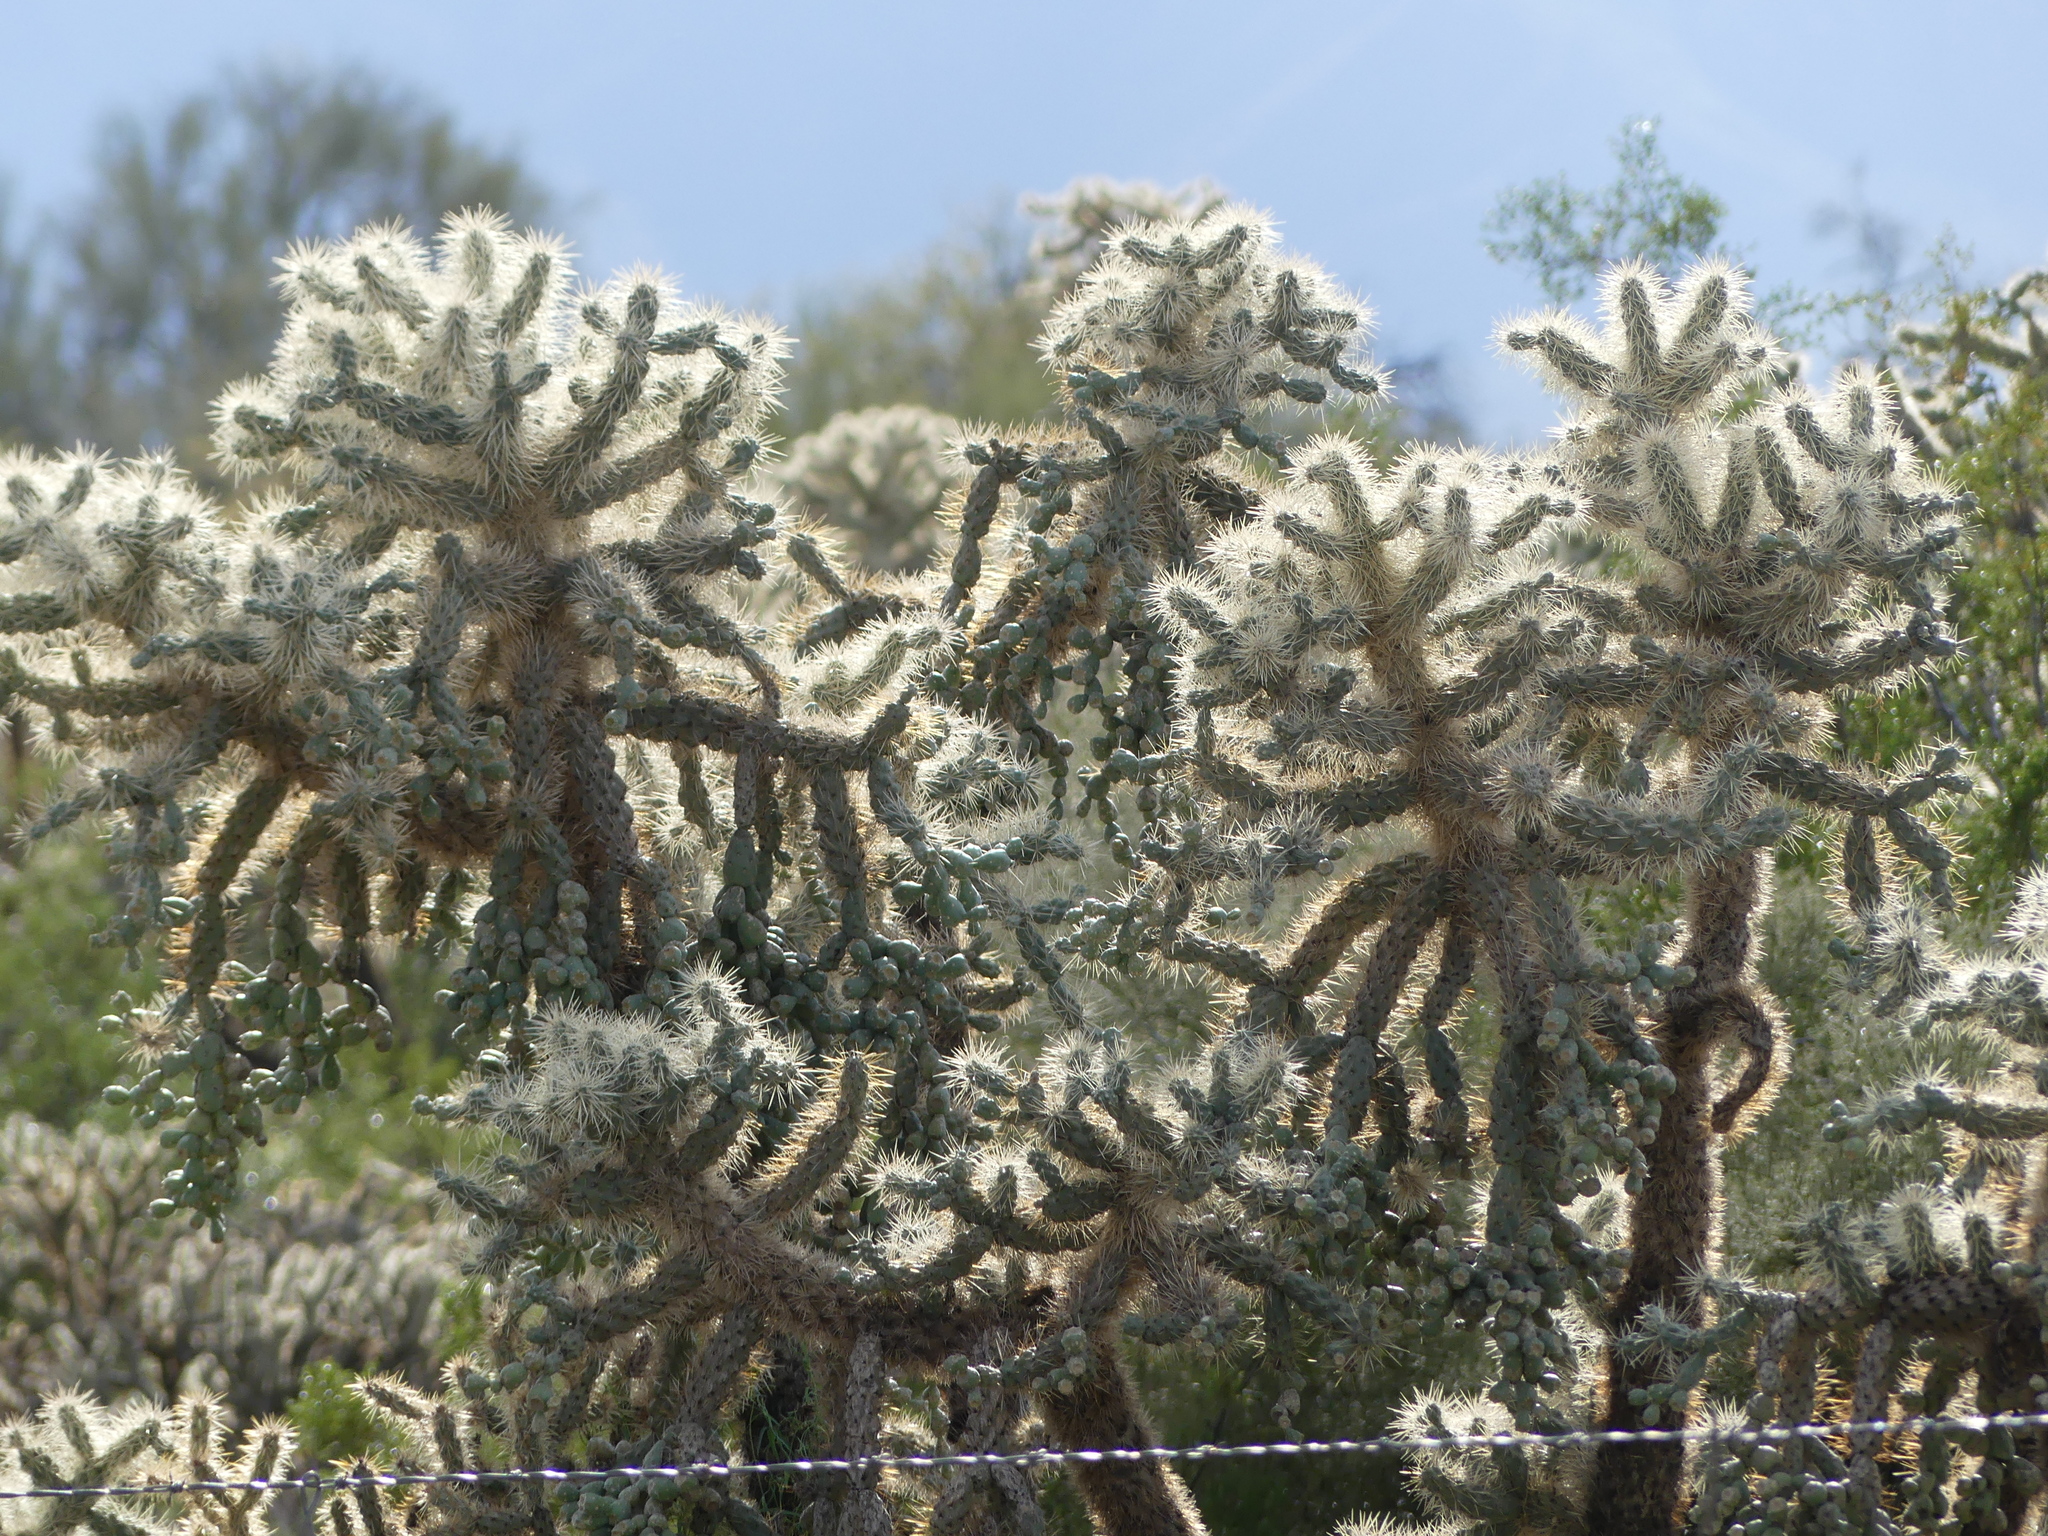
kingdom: Plantae
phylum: Tracheophyta
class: Magnoliopsida
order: Caryophyllales
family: Cactaceae
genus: Cylindropuntia
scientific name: Cylindropuntia fulgida
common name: Jumping cholla
